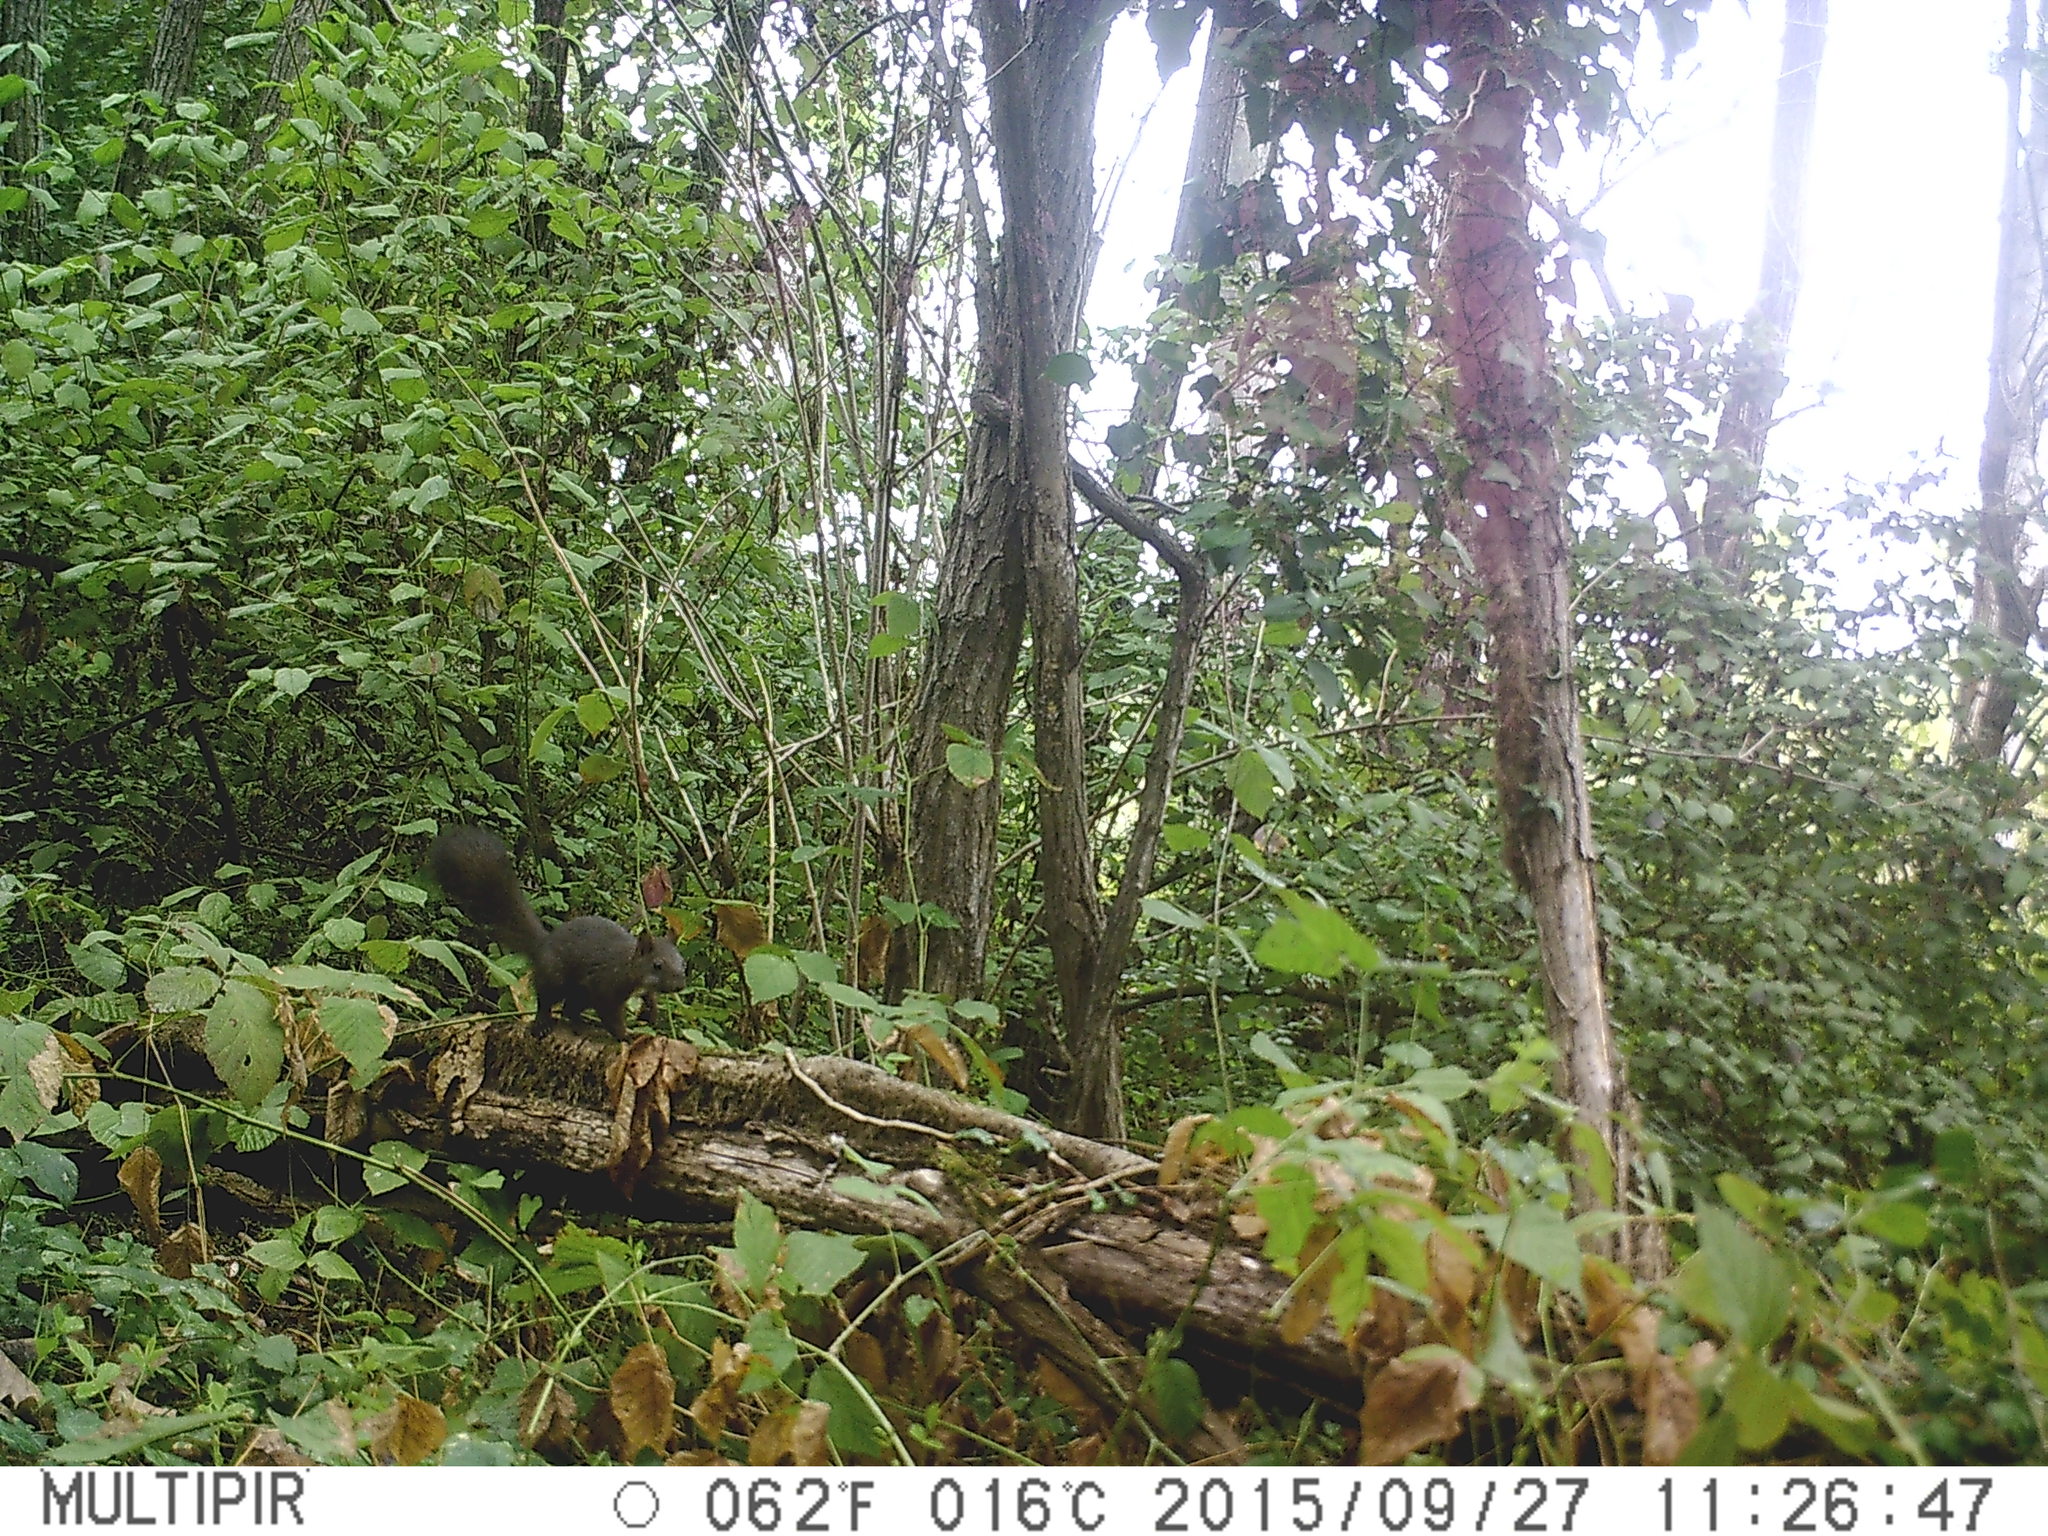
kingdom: Animalia
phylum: Chordata
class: Mammalia
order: Rodentia
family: Sciuridae
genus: Sciurus
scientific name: Sciurus vulgaris
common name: Eurasian red squirrel
